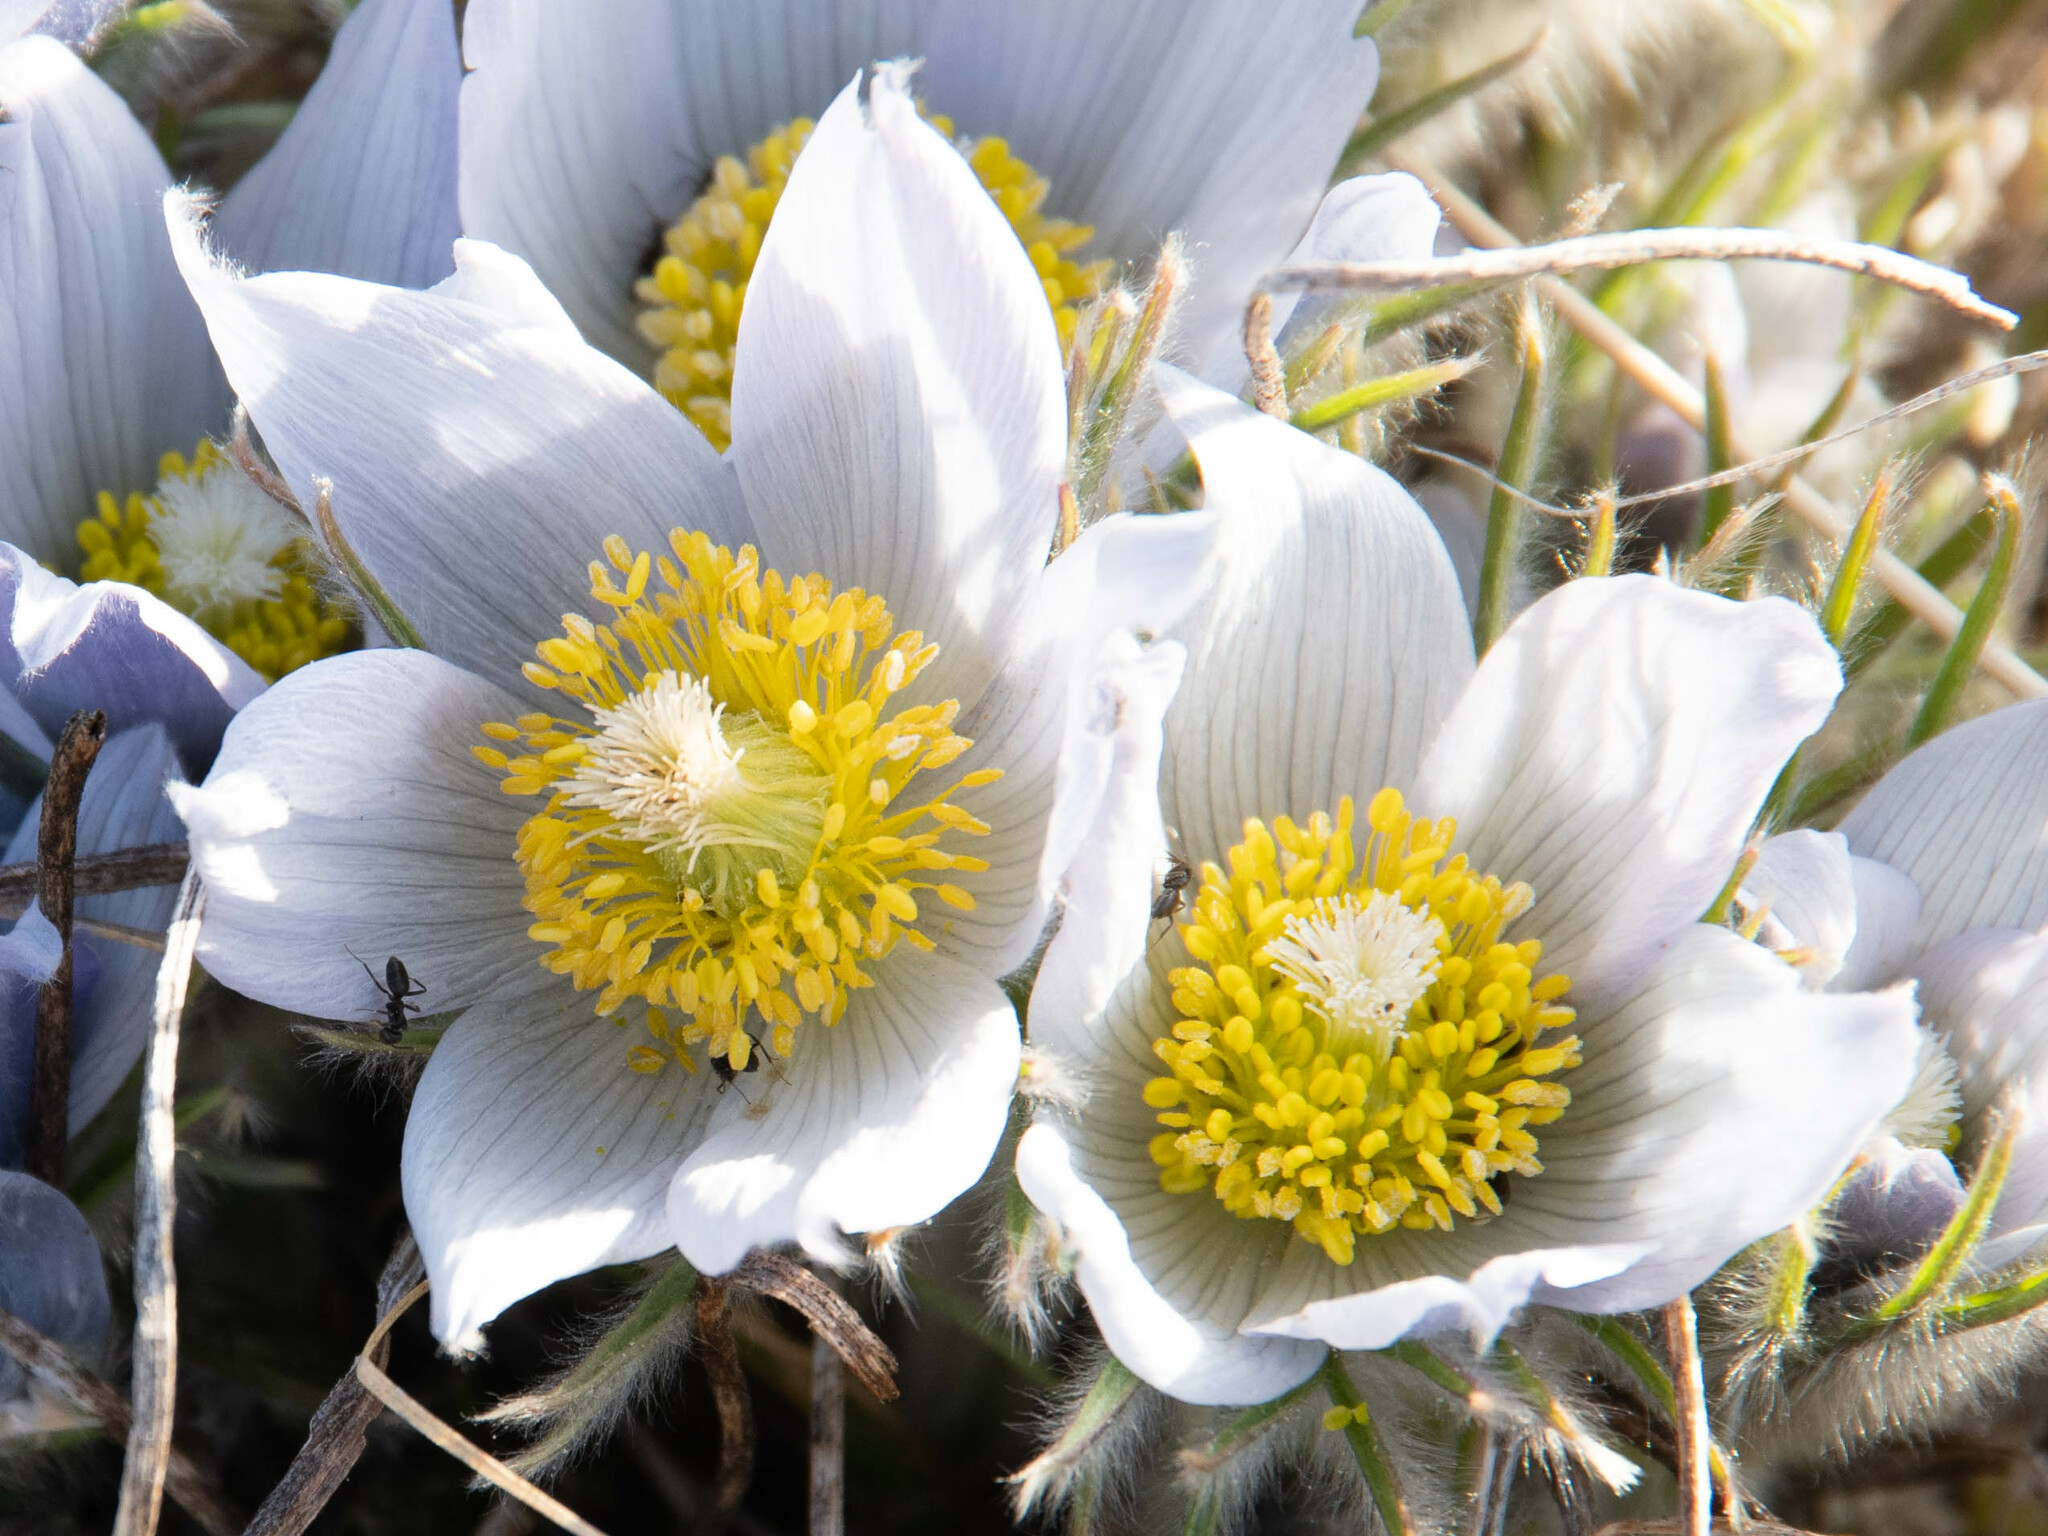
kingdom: Plantae
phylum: Tracheophyta
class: Magnoliopsida
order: Ranunculales
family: Ranunculaceae
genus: Pulsatilla
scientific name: Pulsatilla nuttalliana
